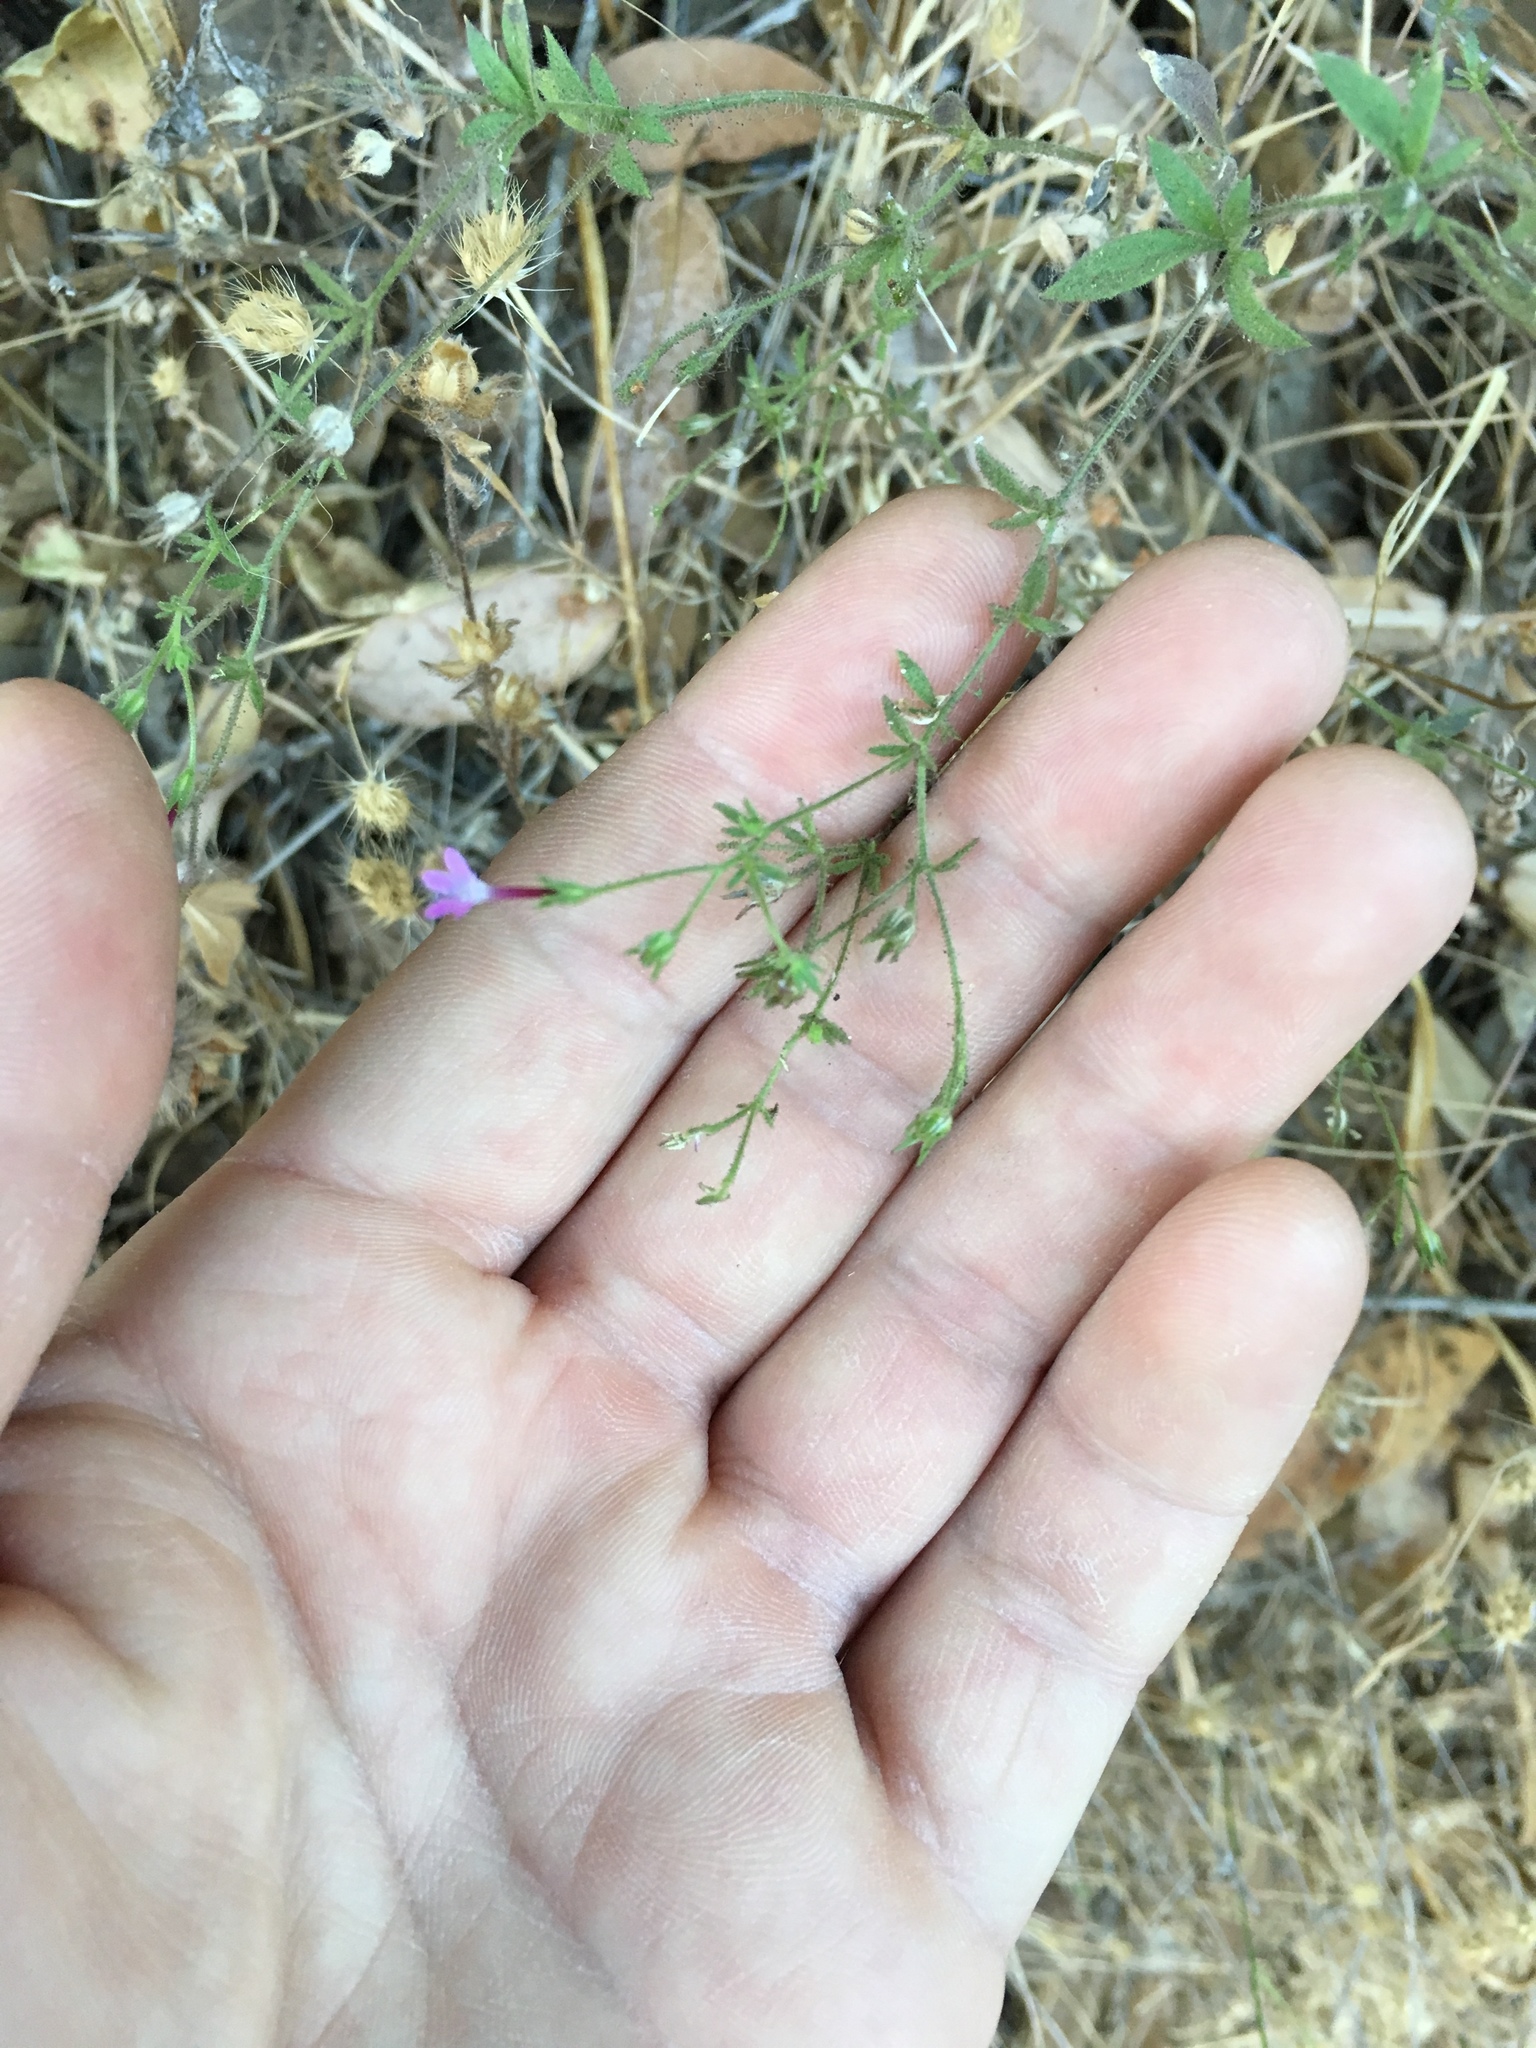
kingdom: Plantae
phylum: Tracheophyta
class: Magnoliopsida
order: Ericales
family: Polemoniaceae
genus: Allophyllum
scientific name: Allophyllum divaricatum
